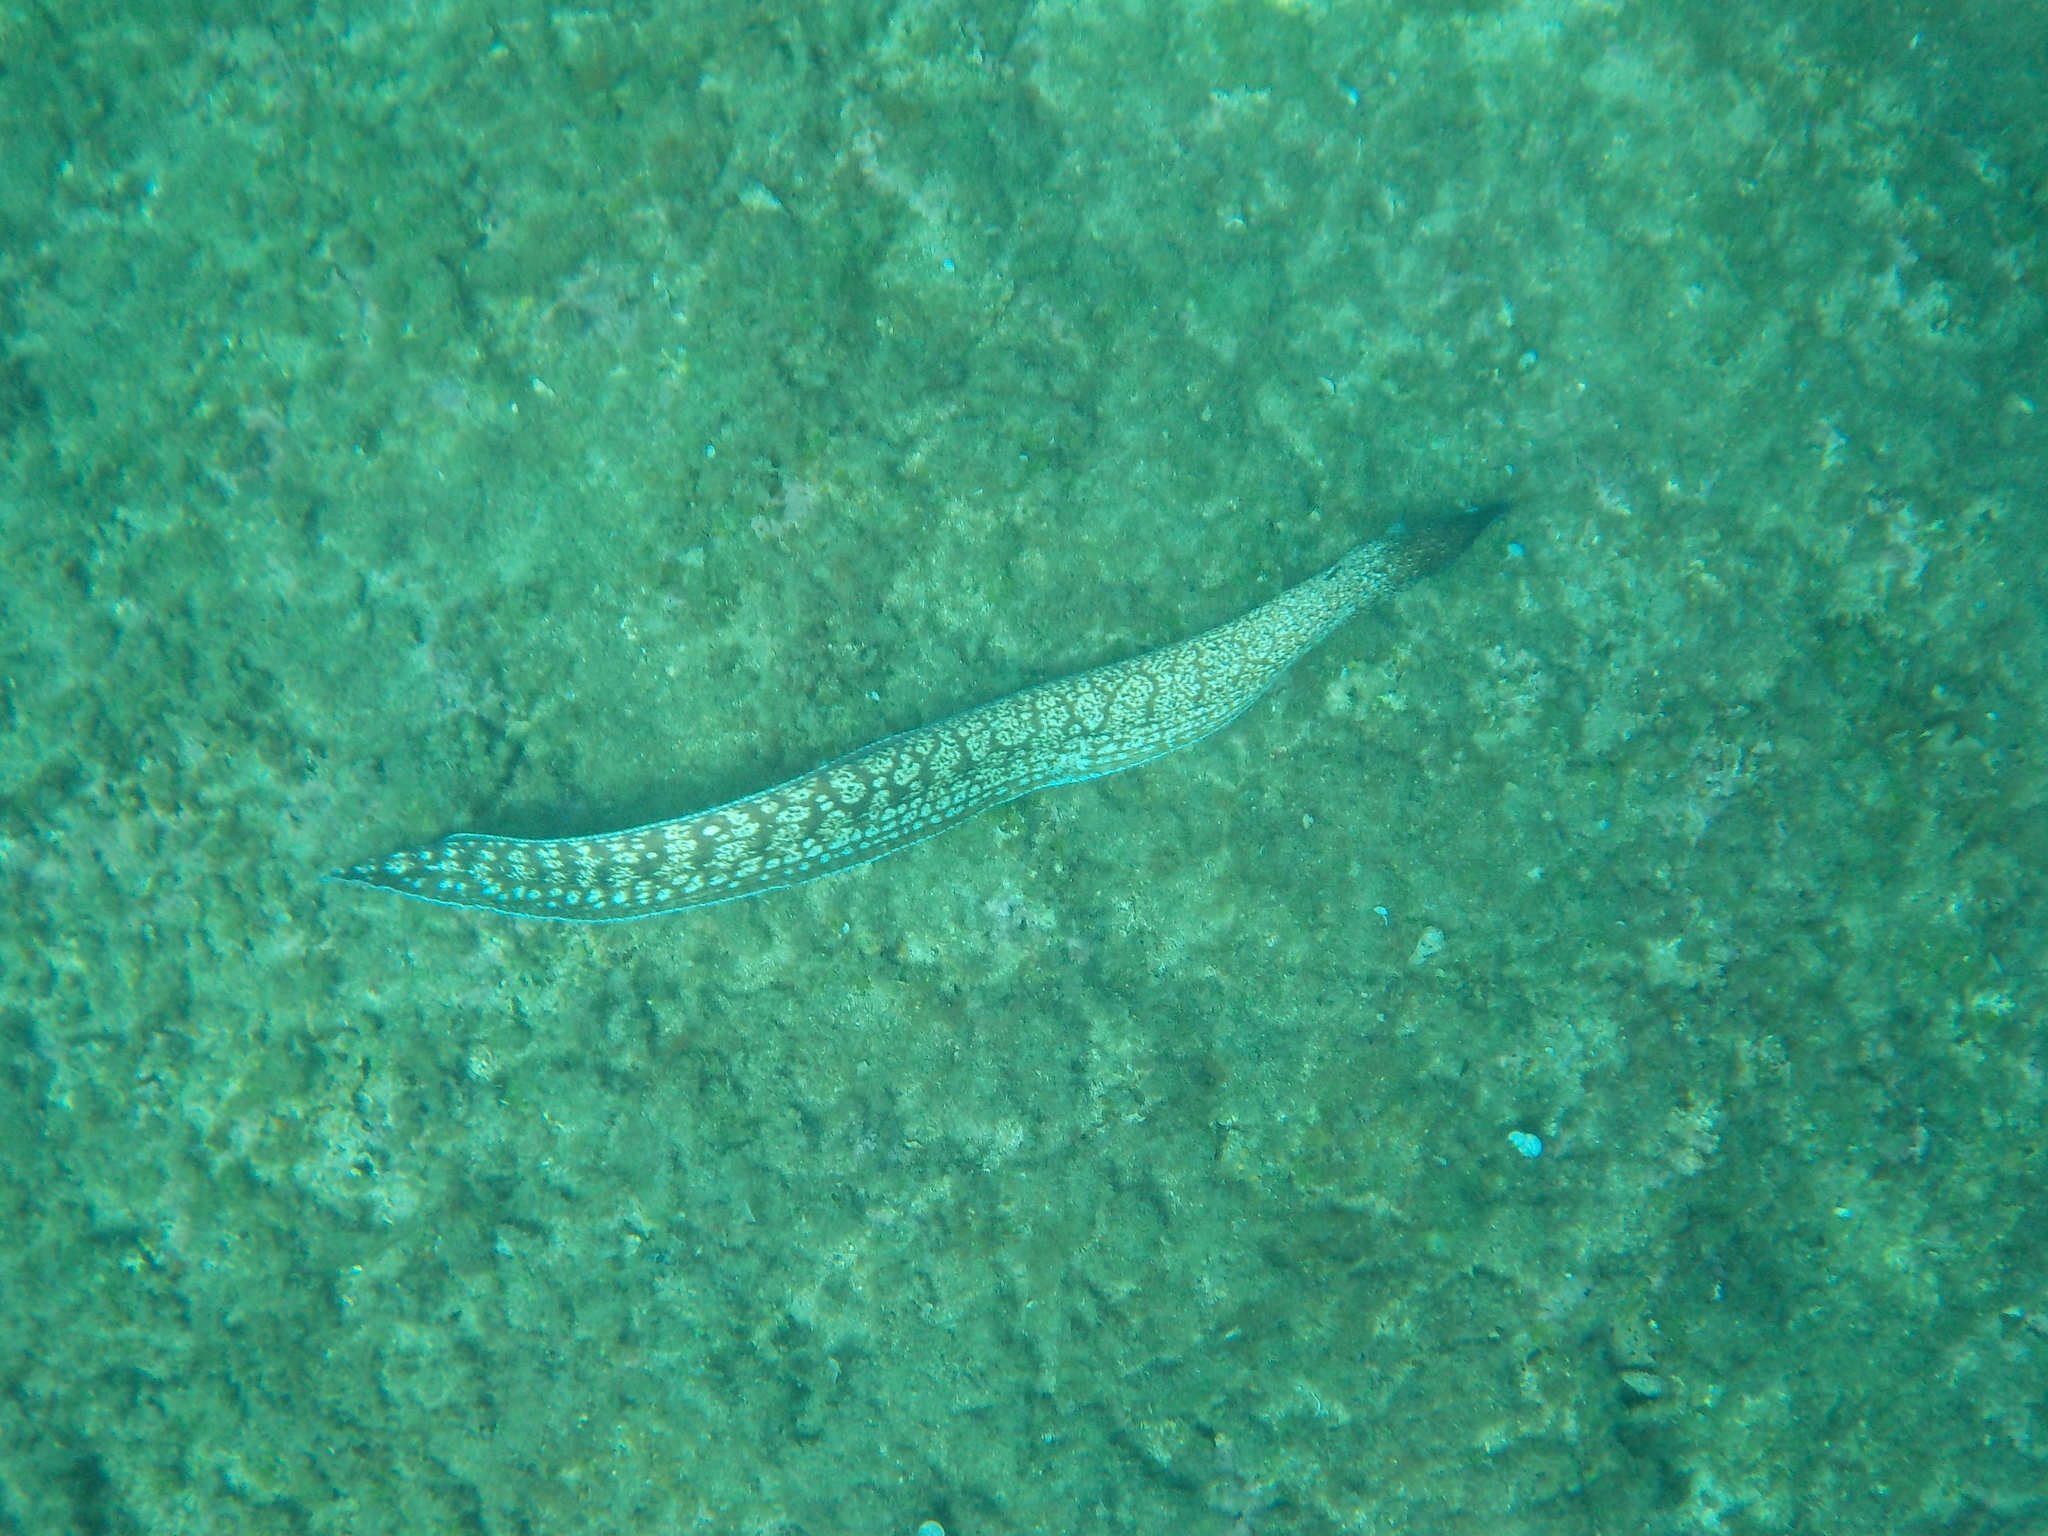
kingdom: Animalia
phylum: Chordata
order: Anguilliformes
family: Muraenidae
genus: Muraena
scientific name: Muraena helena
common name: Mediterranean moray
